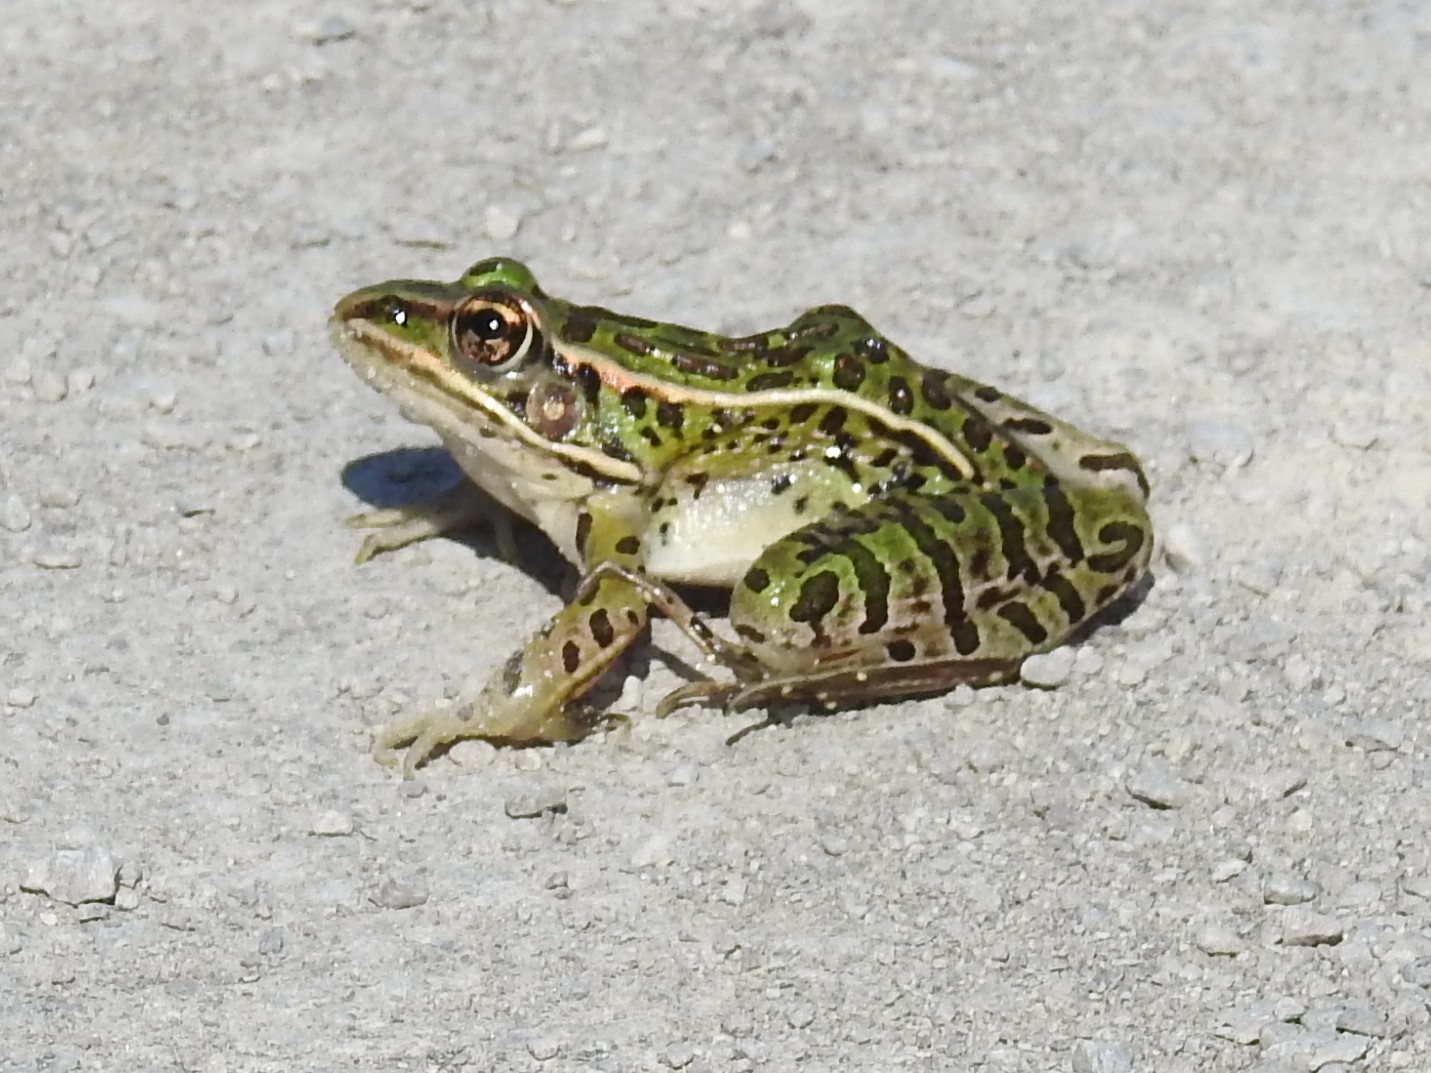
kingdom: Animalia
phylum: Chordata
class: Amphibia
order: Anura
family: Ranidae
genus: Lithobates
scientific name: Lithobates pipiens
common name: Northern leopard frog
